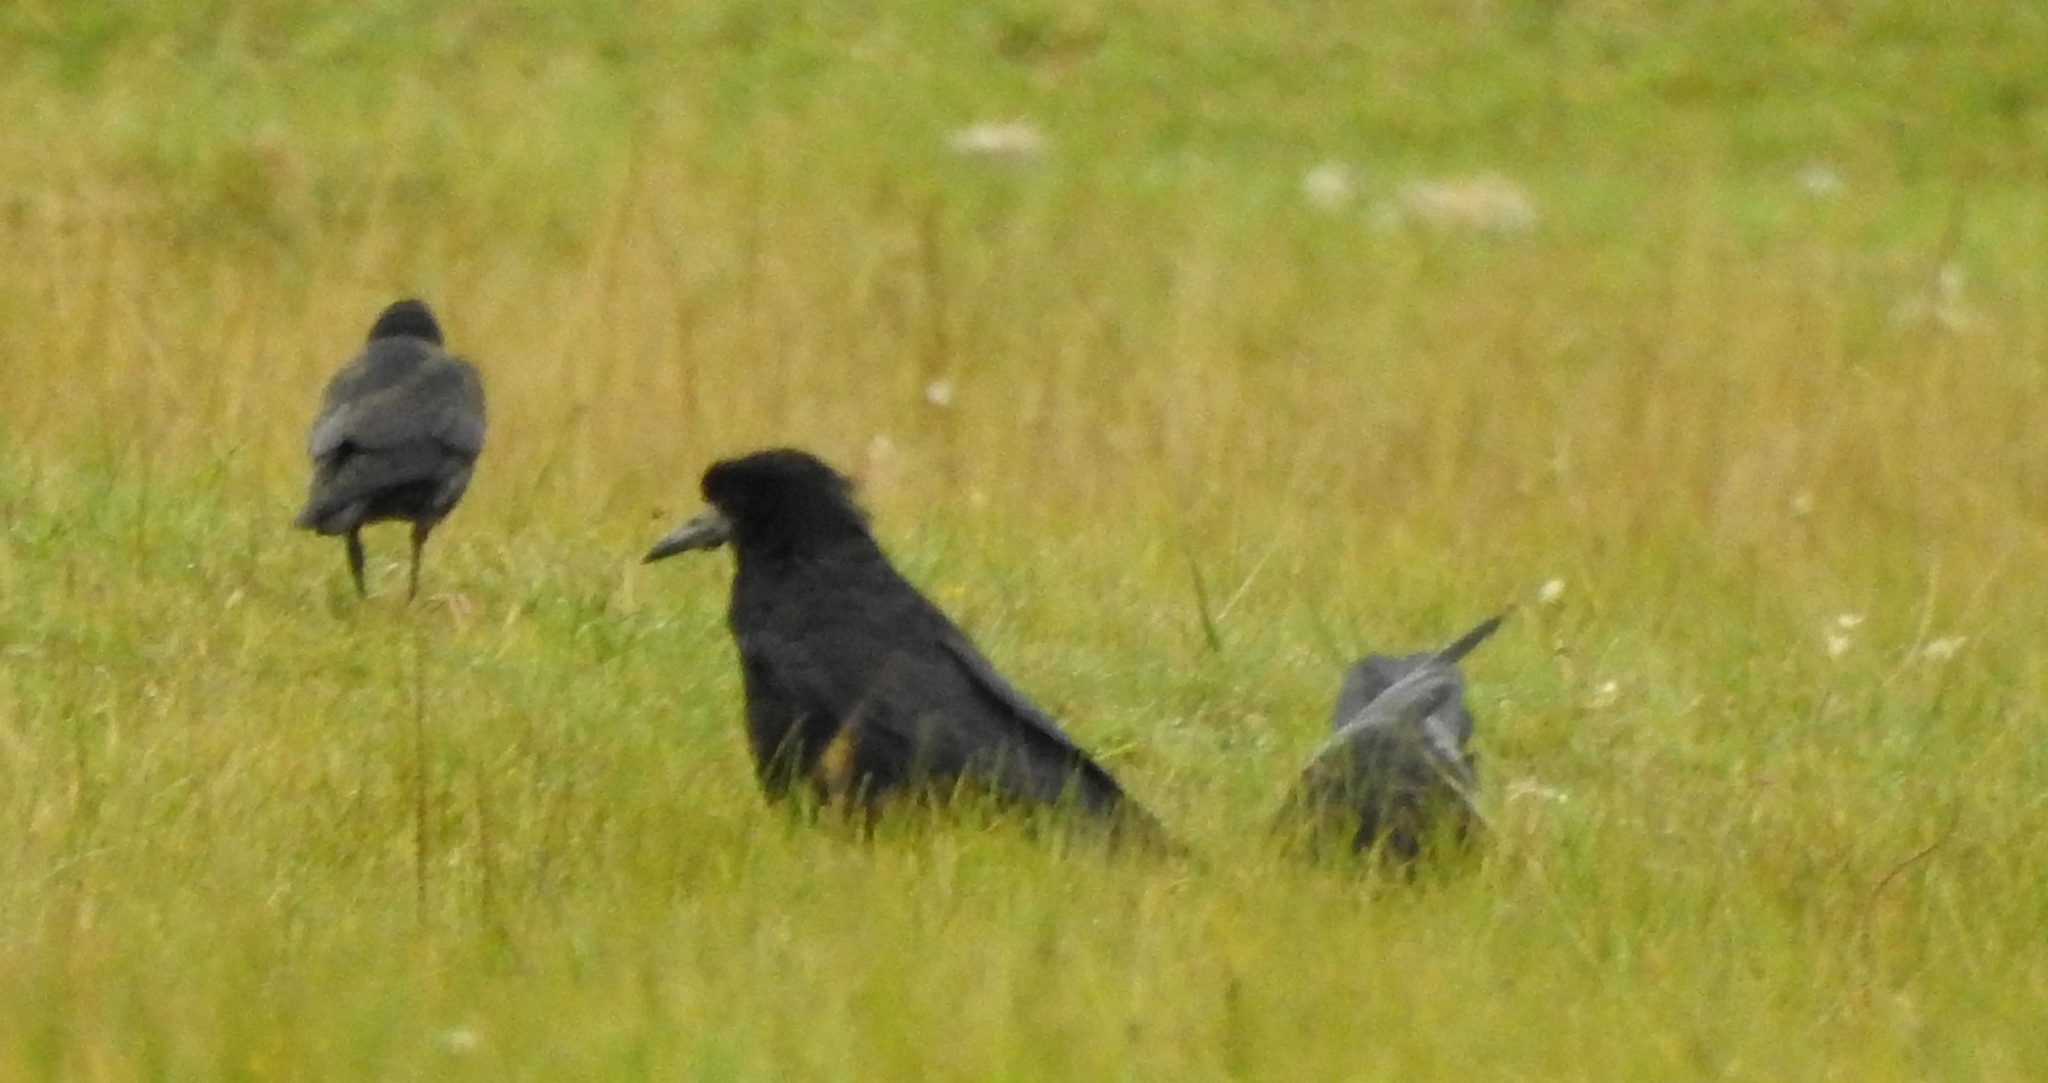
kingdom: Animalia
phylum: Chordata
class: Aves
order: Passeriformes
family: Corvidae
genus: Corvus
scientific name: Corvus frugilegus
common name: Rook
